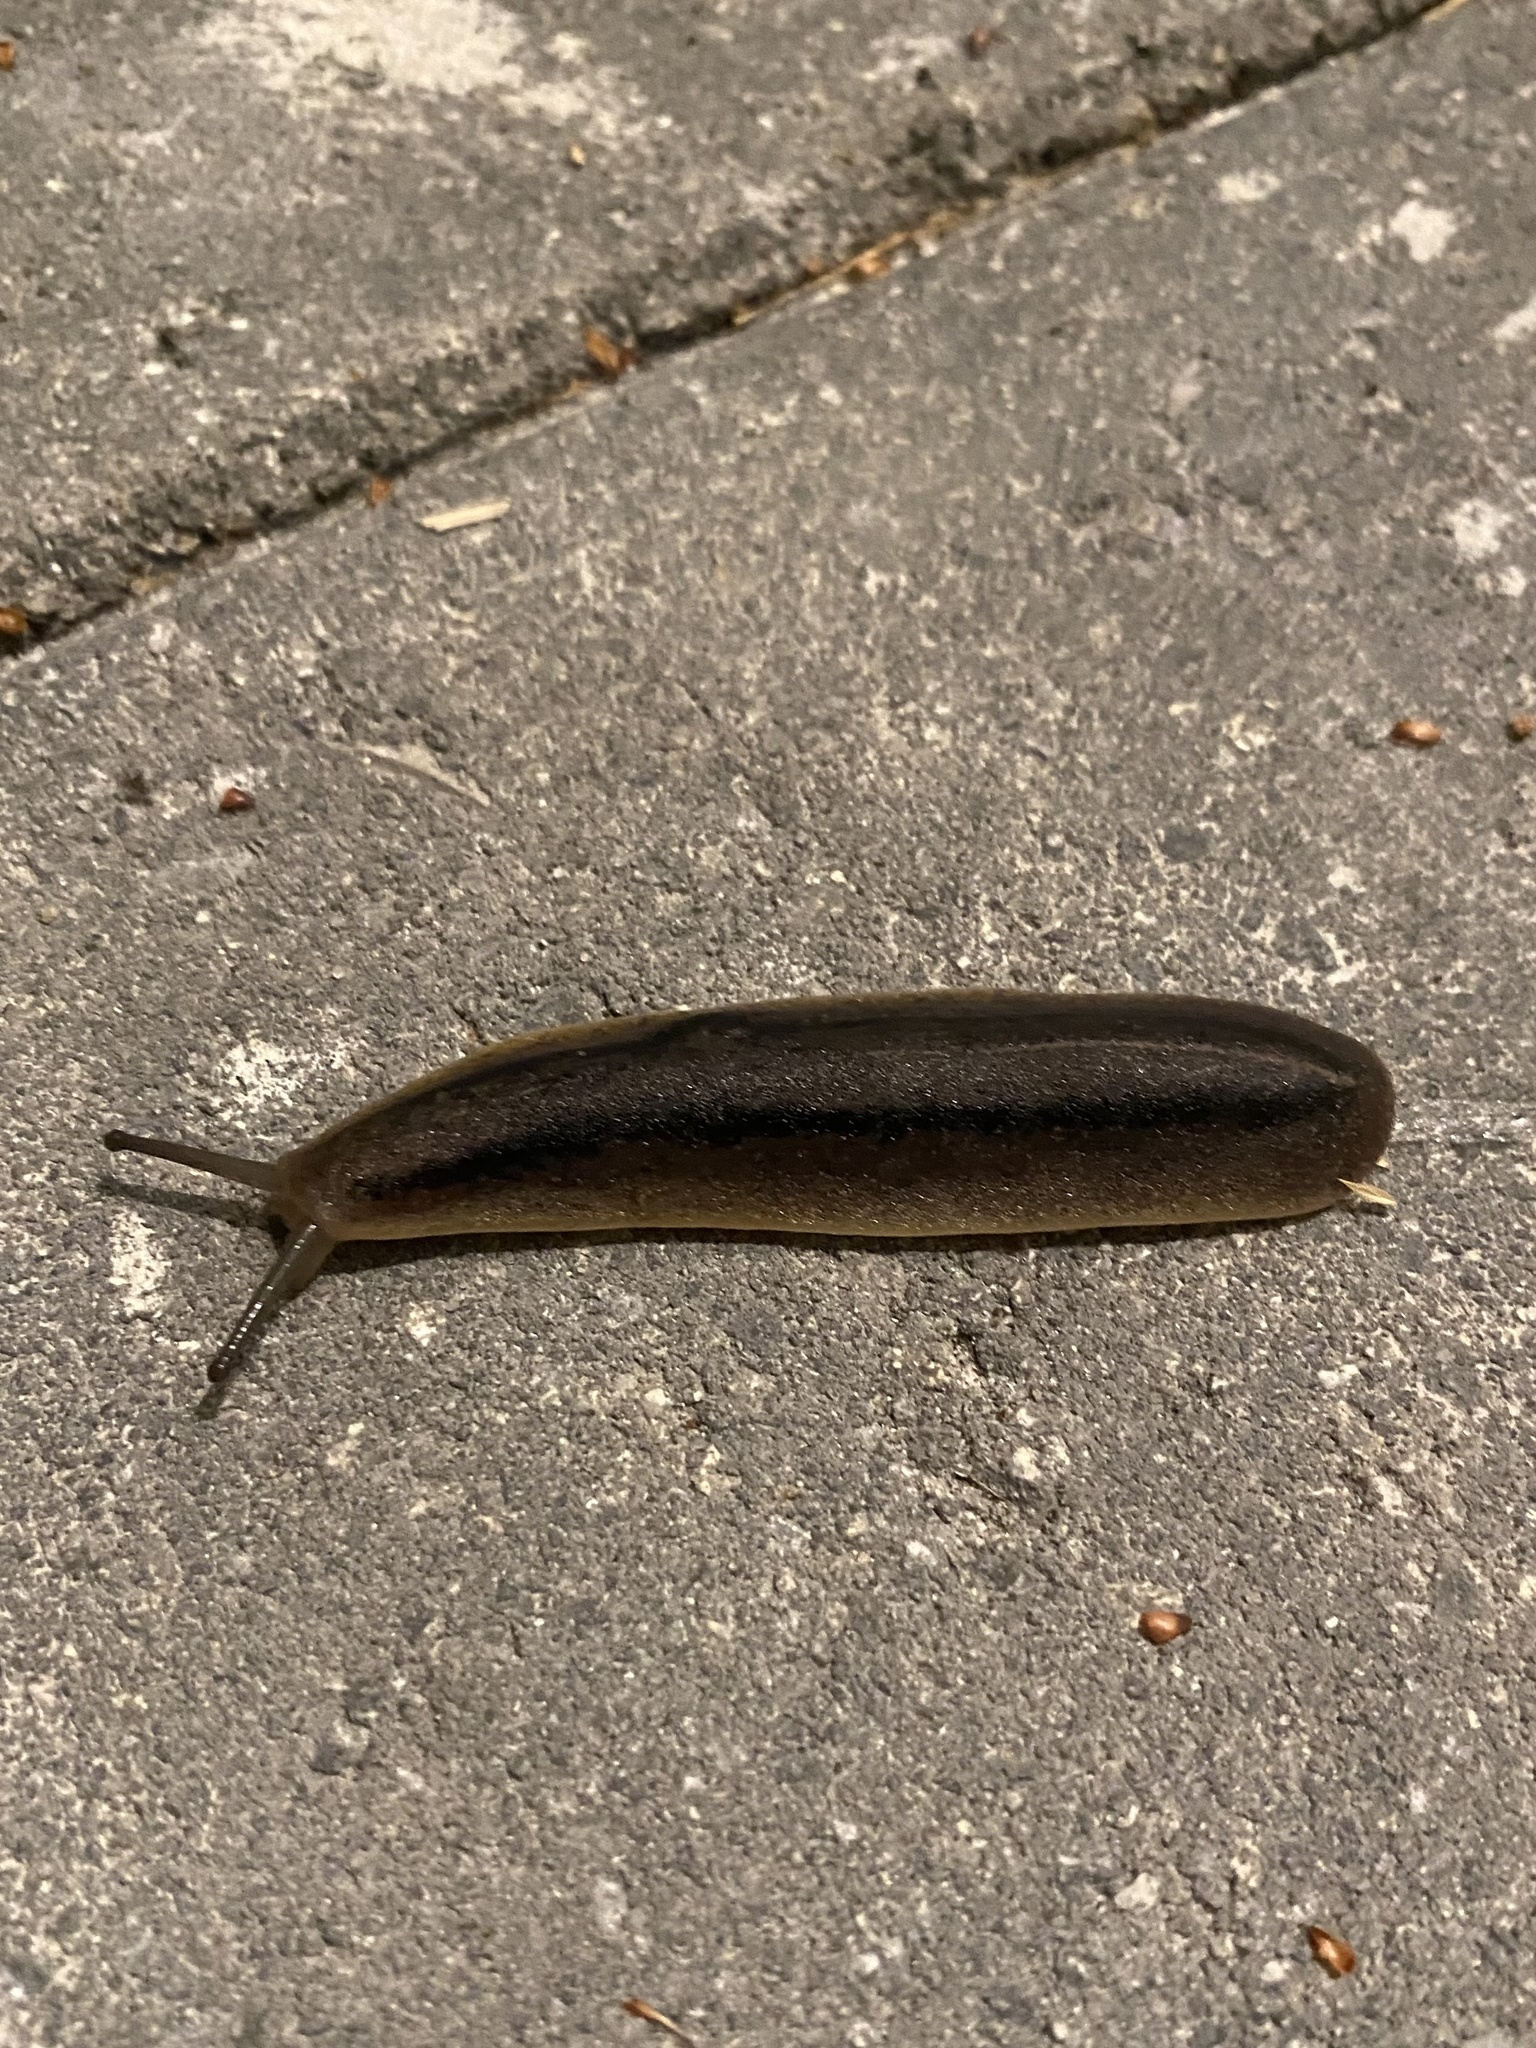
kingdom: Animalia
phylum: Mollusca
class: Gastropoda
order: Systellommatophora
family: Veronicellidae
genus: Leidyula
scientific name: Leidyula floridana
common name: Florida leatherleaf
